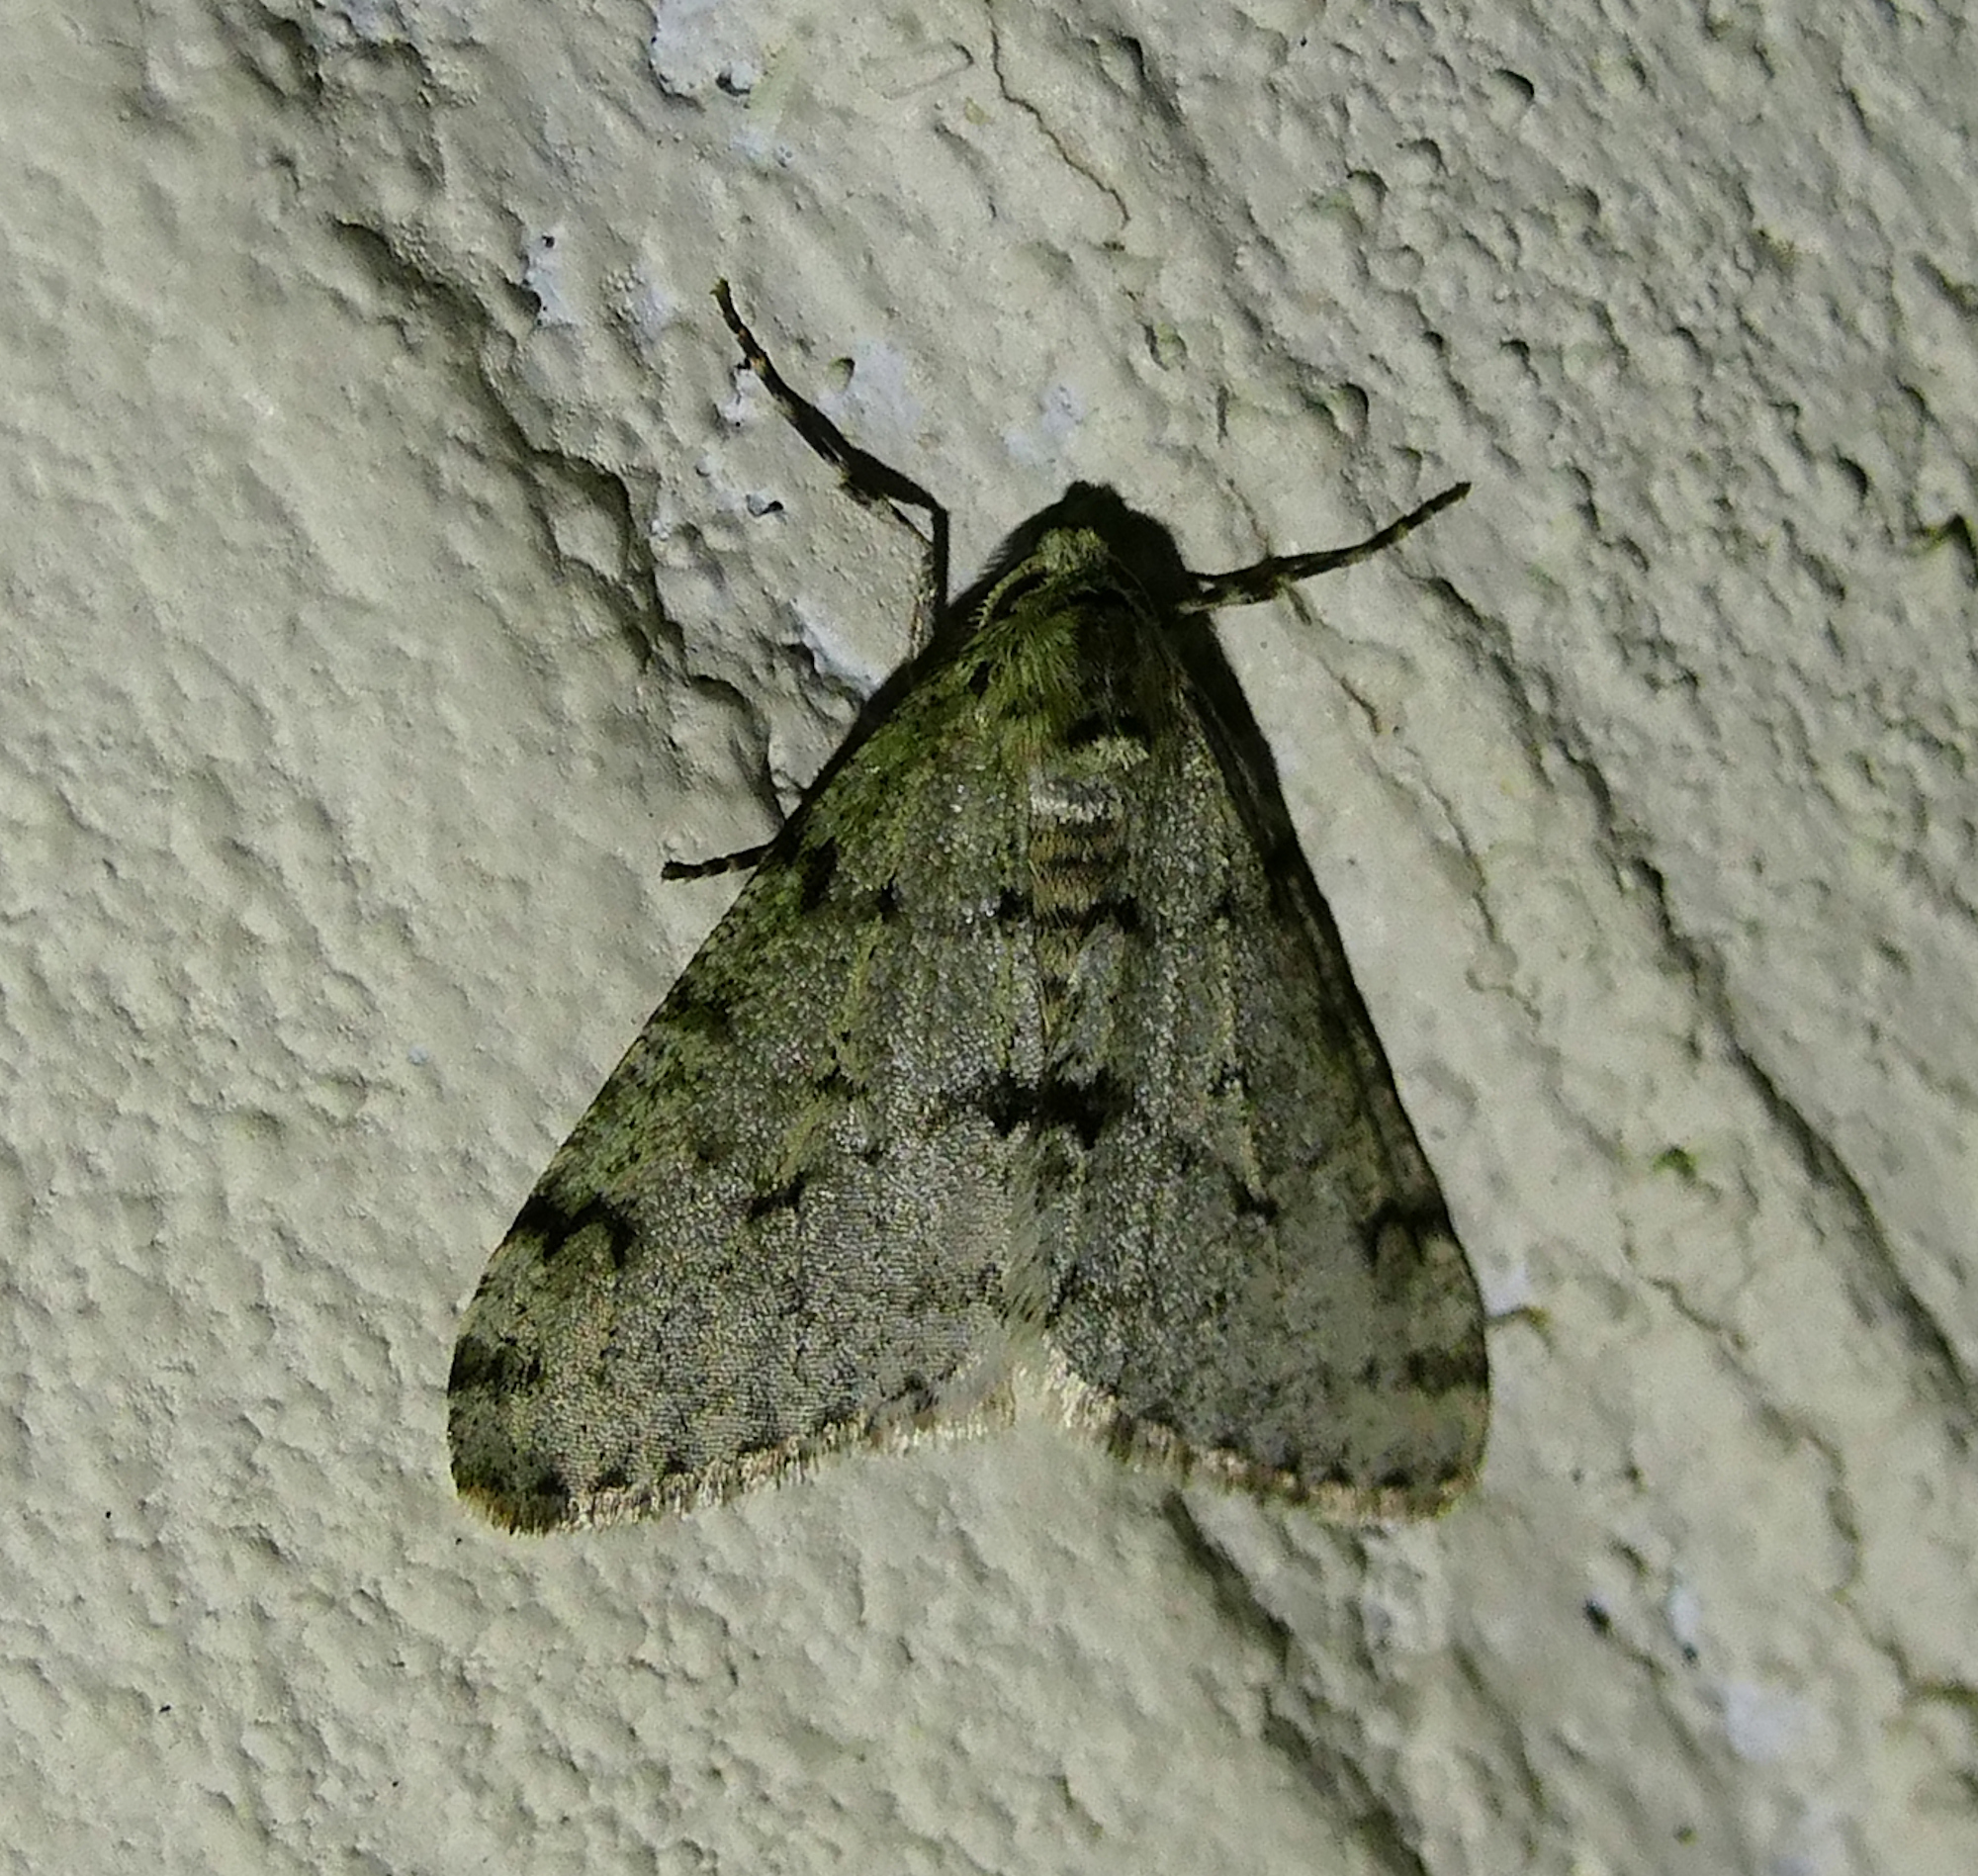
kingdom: Animalia
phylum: Arthropoda
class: Insecta
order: Lepidoptera
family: Geometridae
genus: Phigalia
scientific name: Phigalia strigataria
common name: Small phigalia
